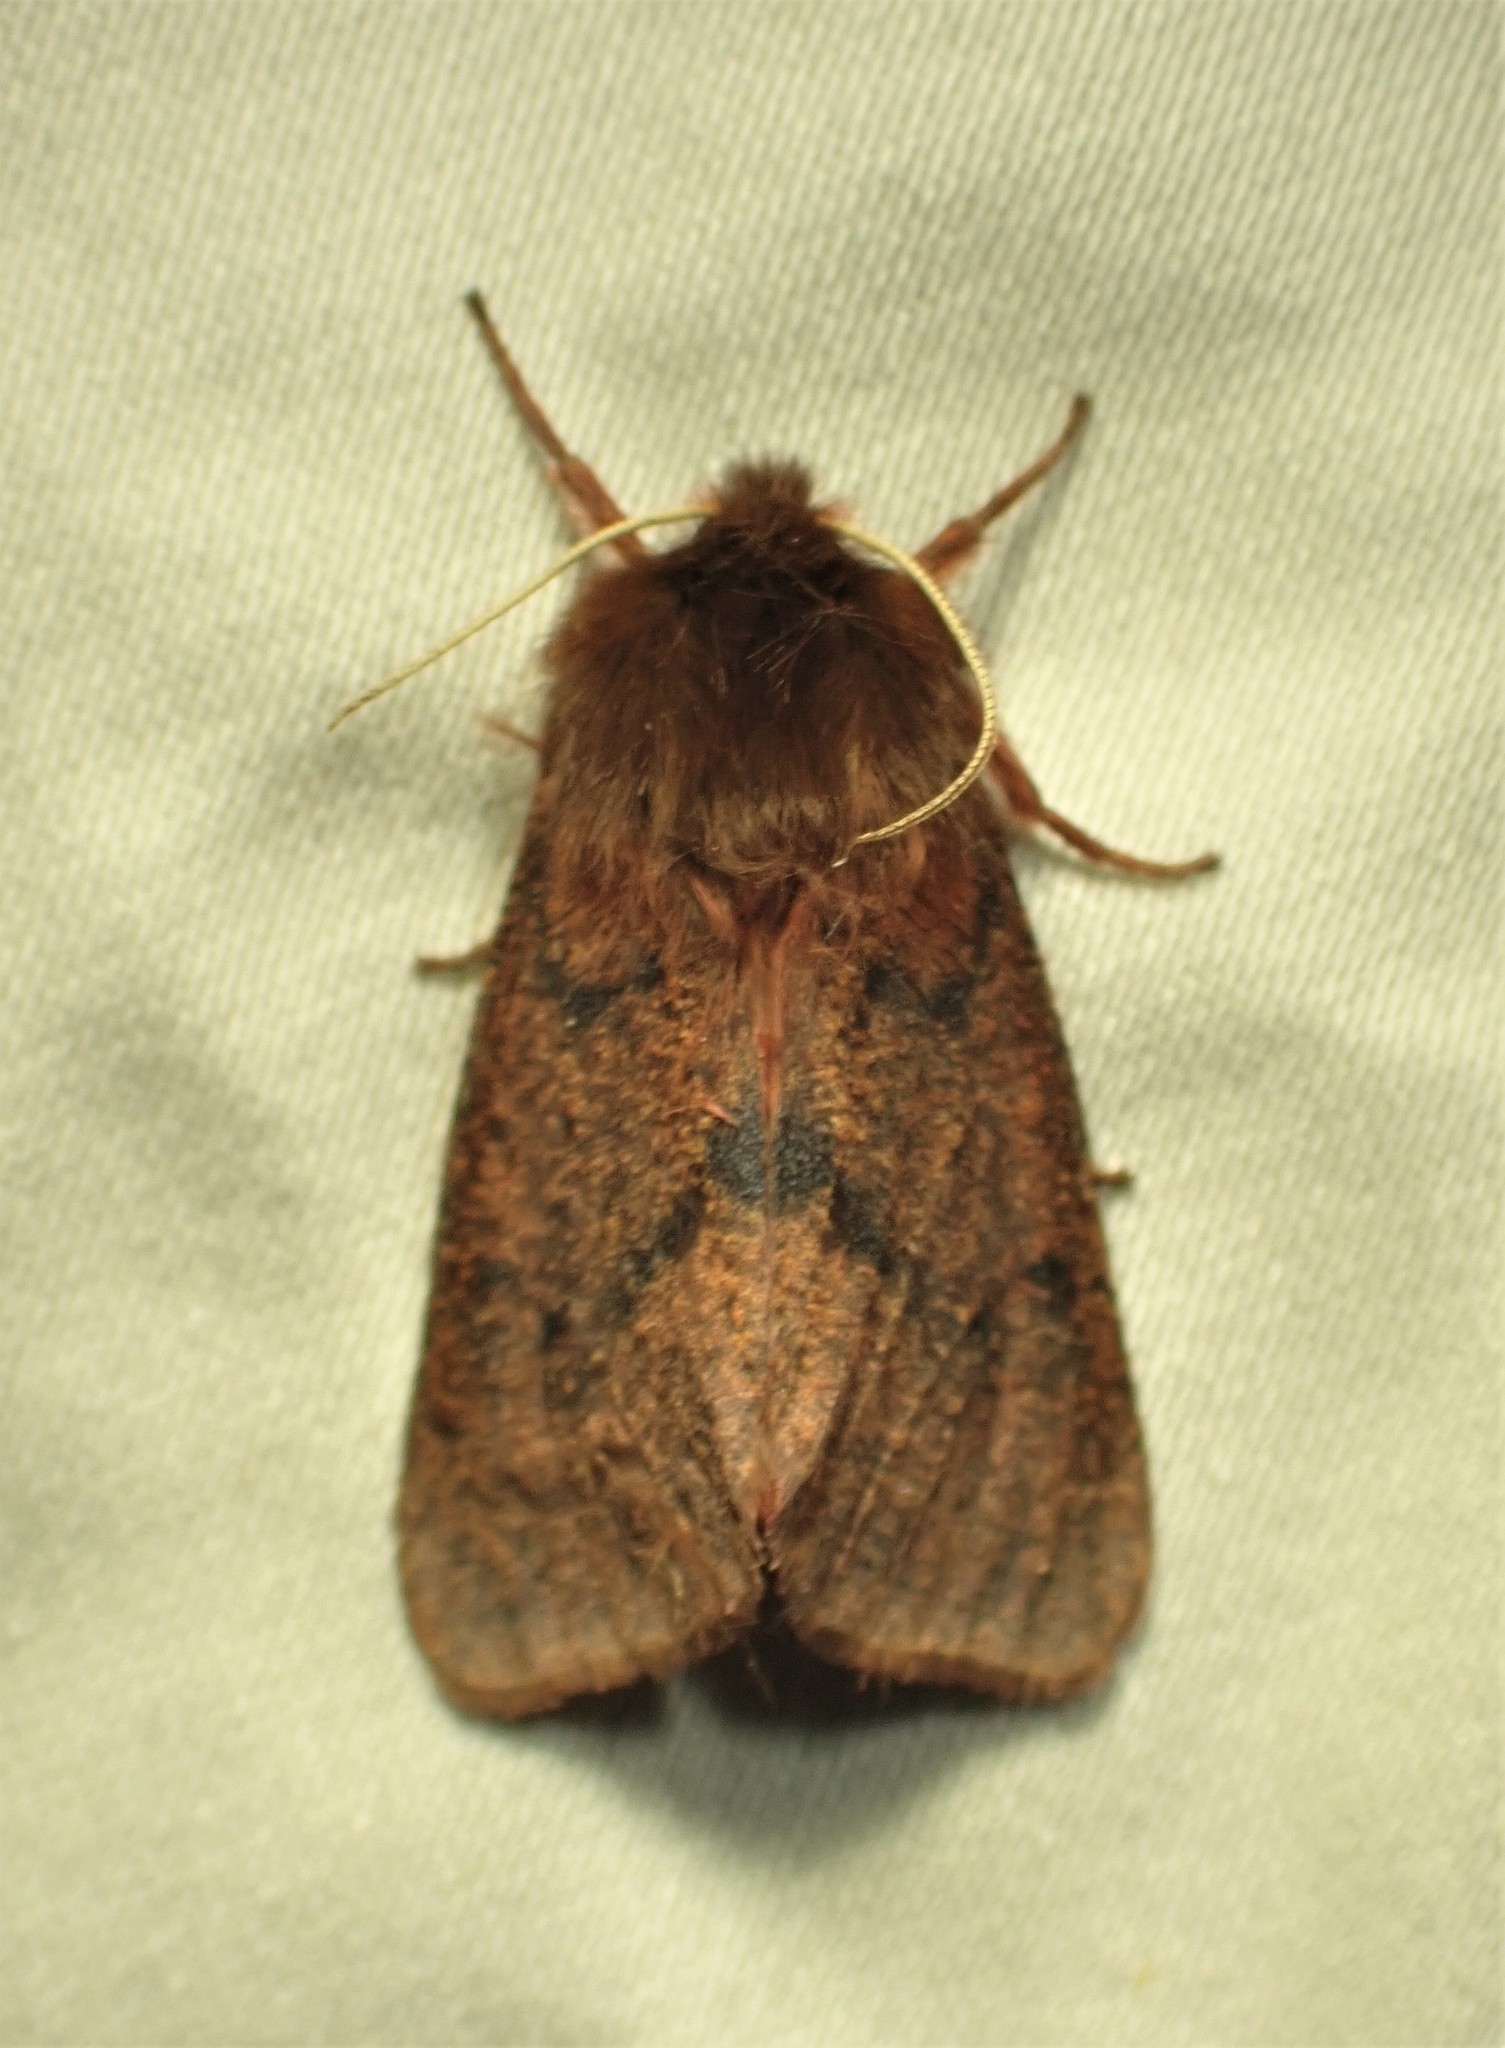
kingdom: Animalia
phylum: Arthropoda
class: Insecta
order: Lepidoptera
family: Erebidae
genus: Phragmatobia
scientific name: Phragmatobia assimilans
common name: Large ruby tiger moth
